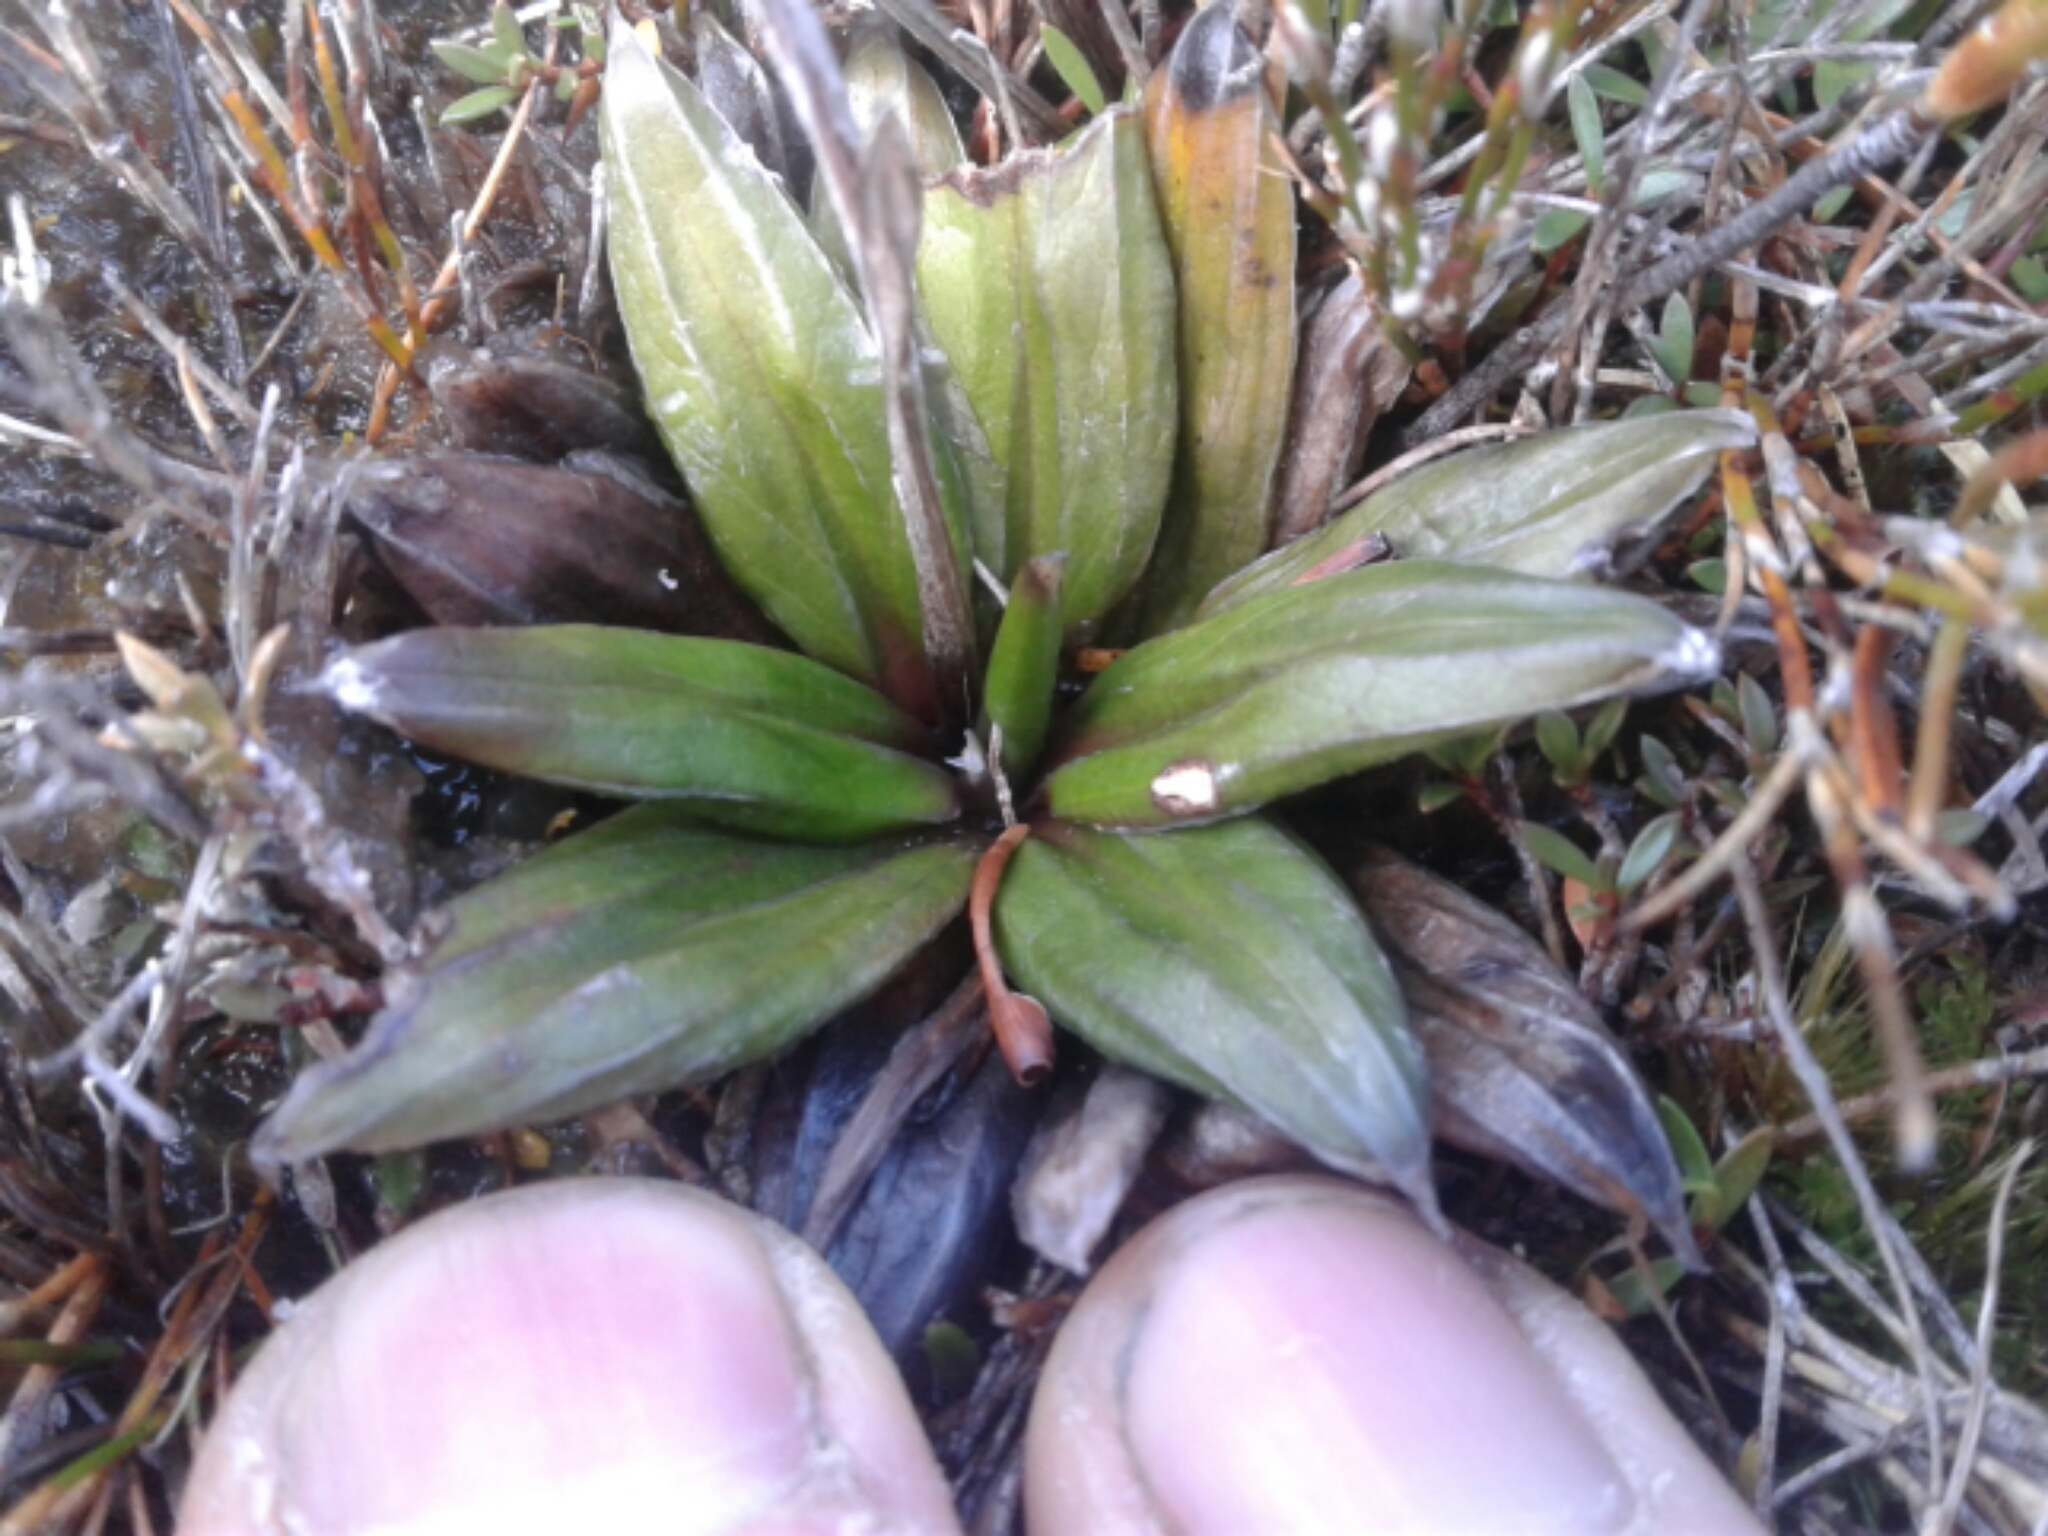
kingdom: Plantae
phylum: Tracheophyta
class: Magnoliopsida
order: Asterales
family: Asteraceae
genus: Celmisia
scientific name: Celmisia dubia
